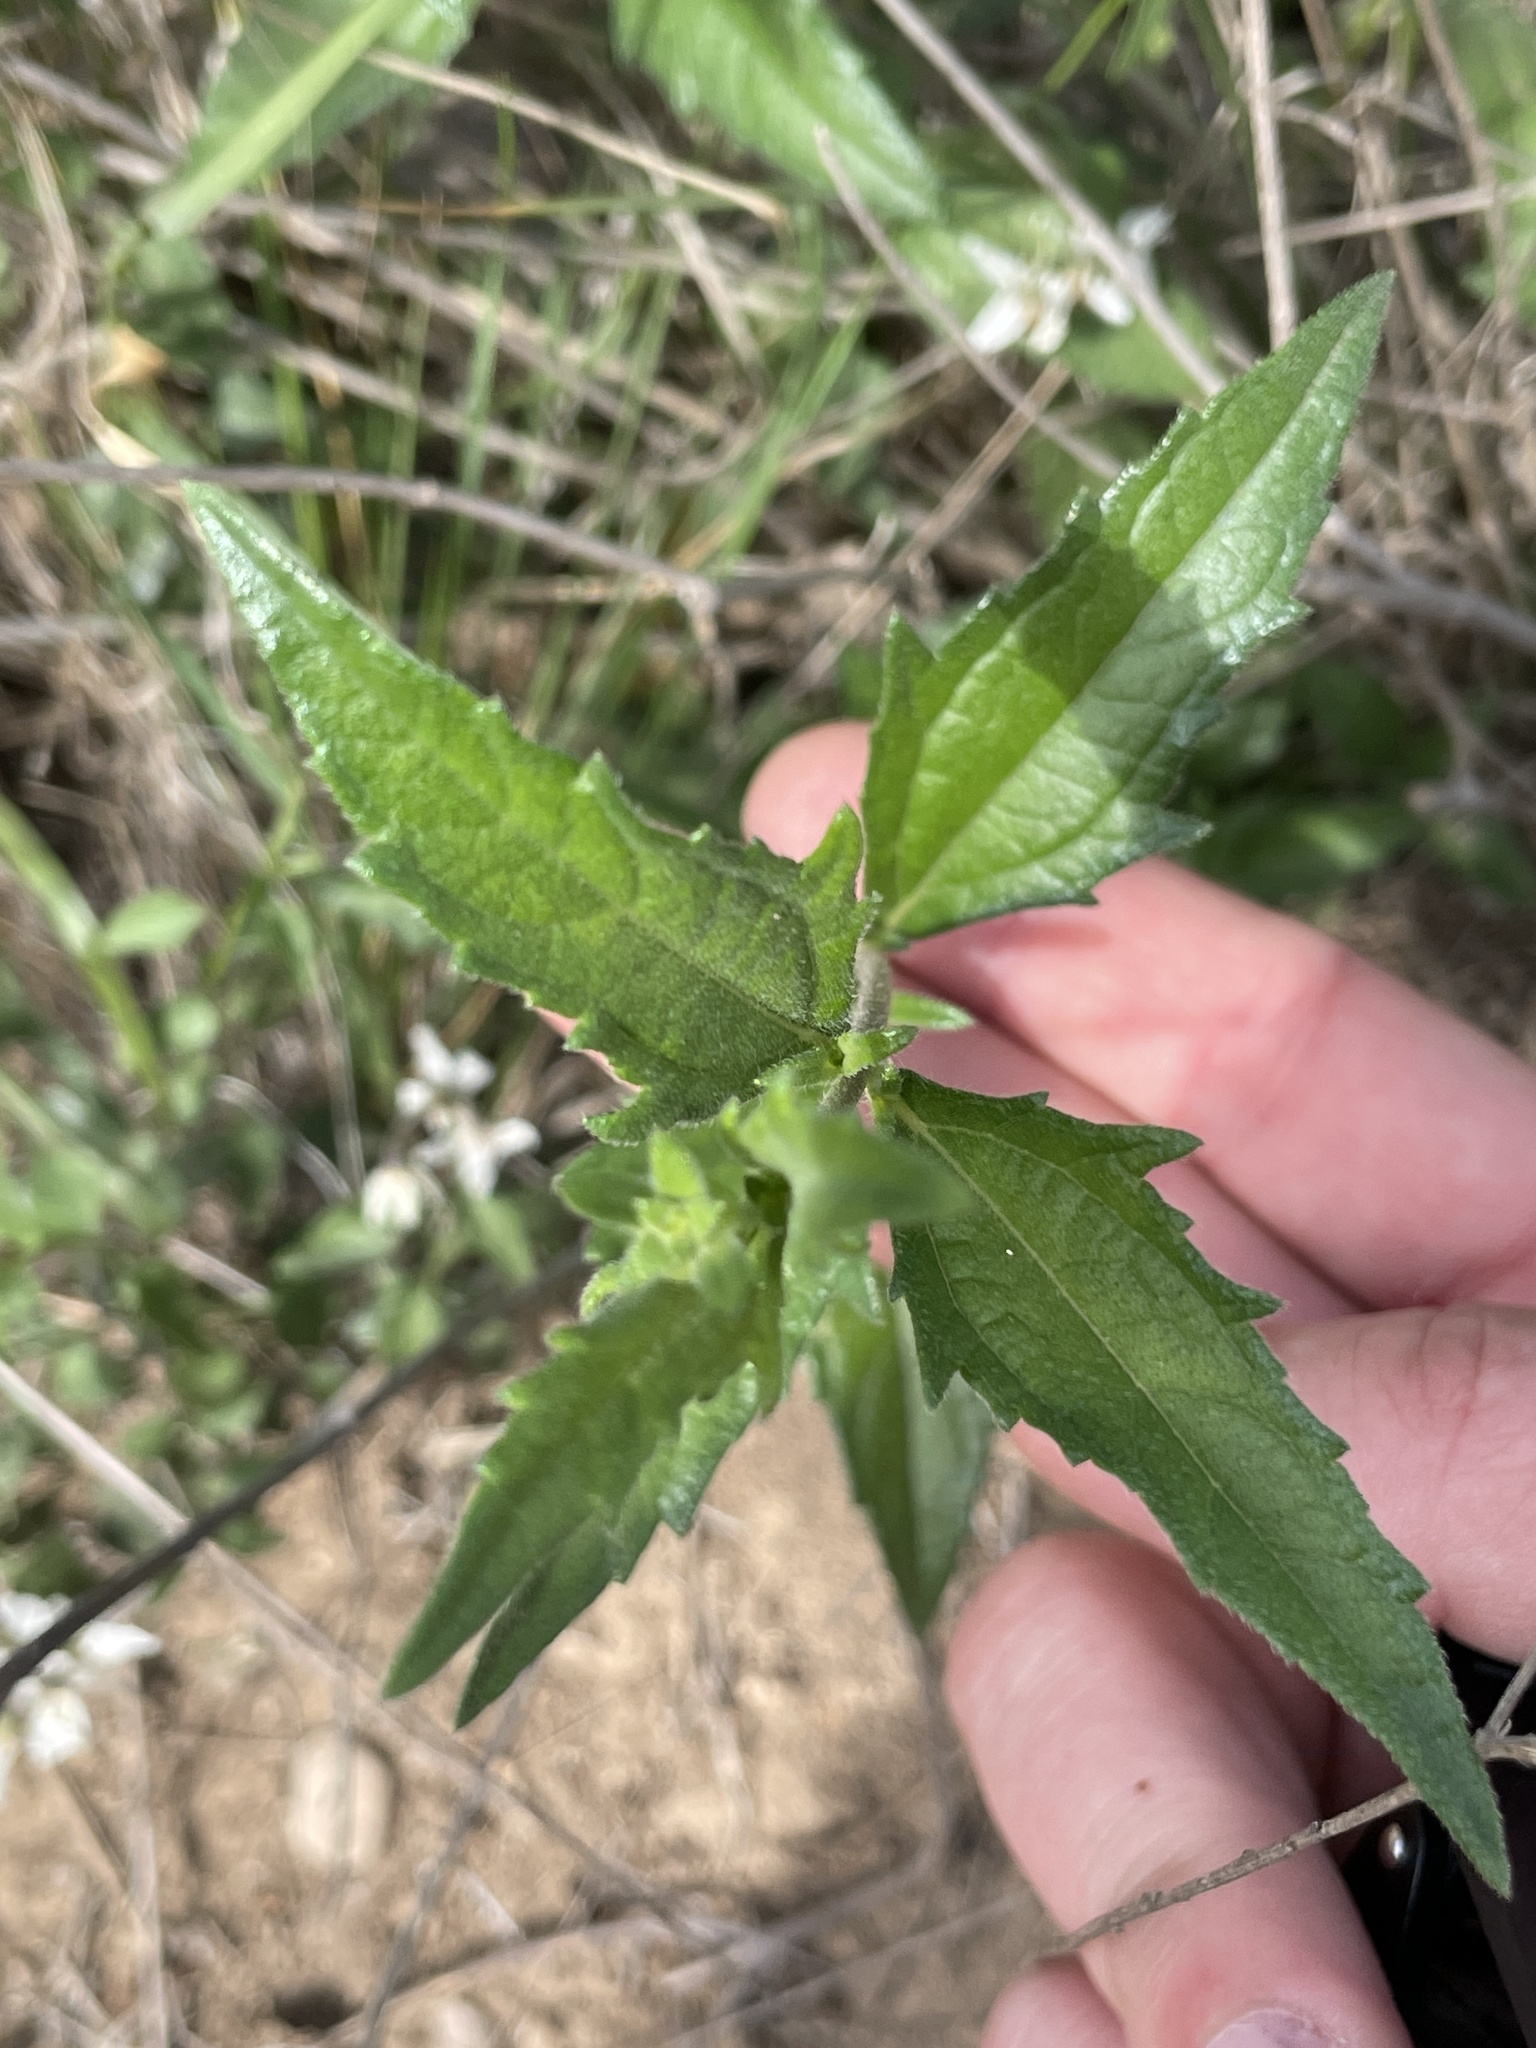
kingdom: Plantae
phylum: Tracheophyta
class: Magnoliopsida
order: Asterales
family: Asteraceae
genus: Wedelia
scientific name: Wedelia acapulcensis
